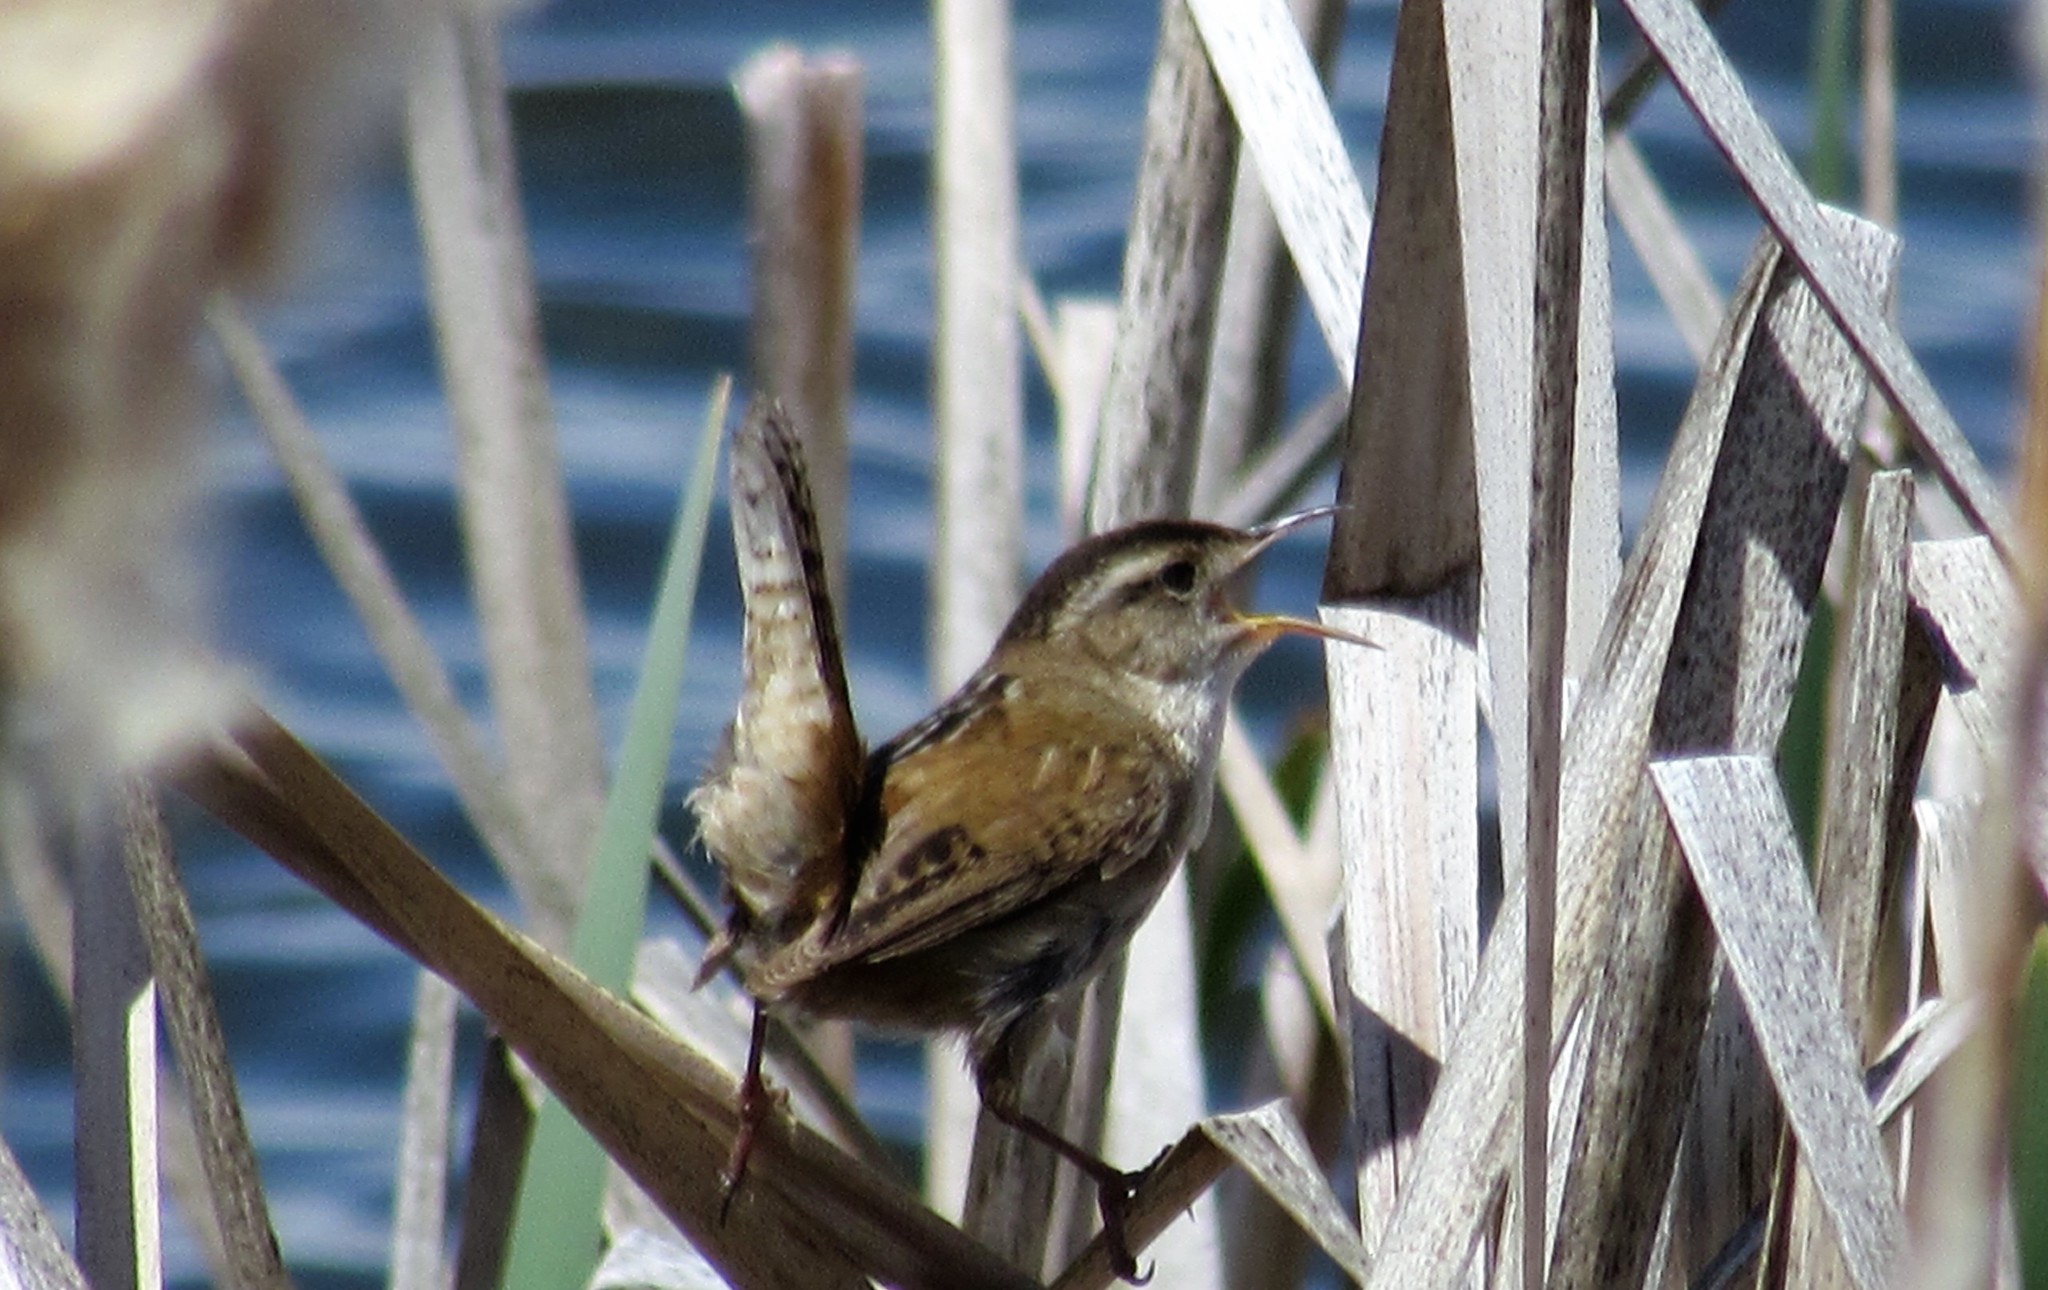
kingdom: Animalia
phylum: Chordata
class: Aves
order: Passeriformes
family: Troglodytidae
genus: Cistothorus
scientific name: Cistothorus palustris
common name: Marsh wren
